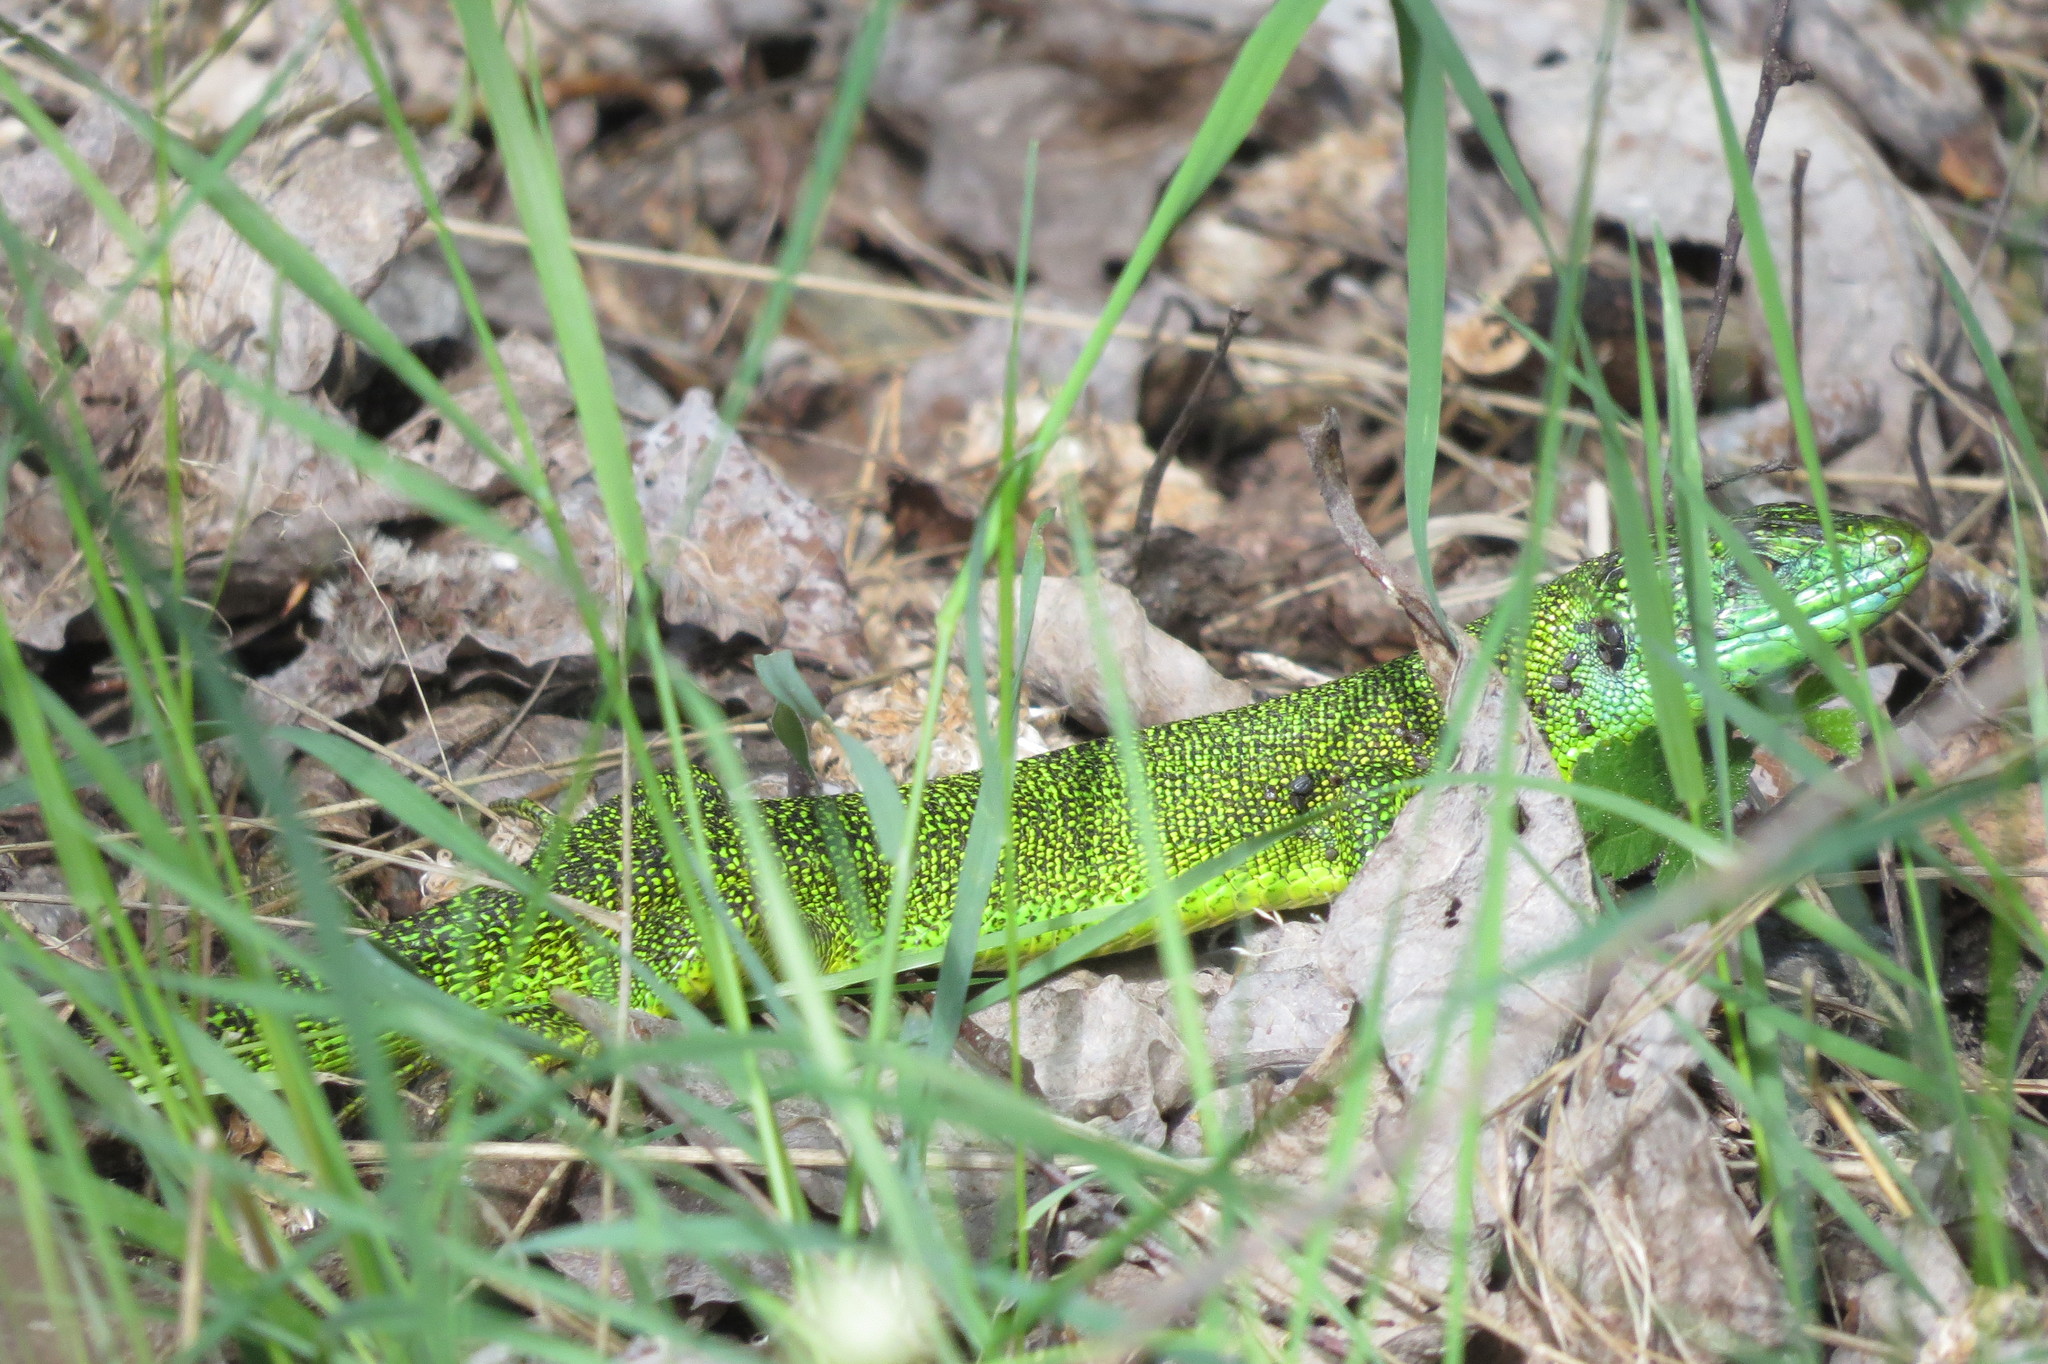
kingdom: Animalia
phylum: Chordata
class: Squamata
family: Lacertidae
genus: Lacerta
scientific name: Lacerta bilineata
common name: Western green lizard
